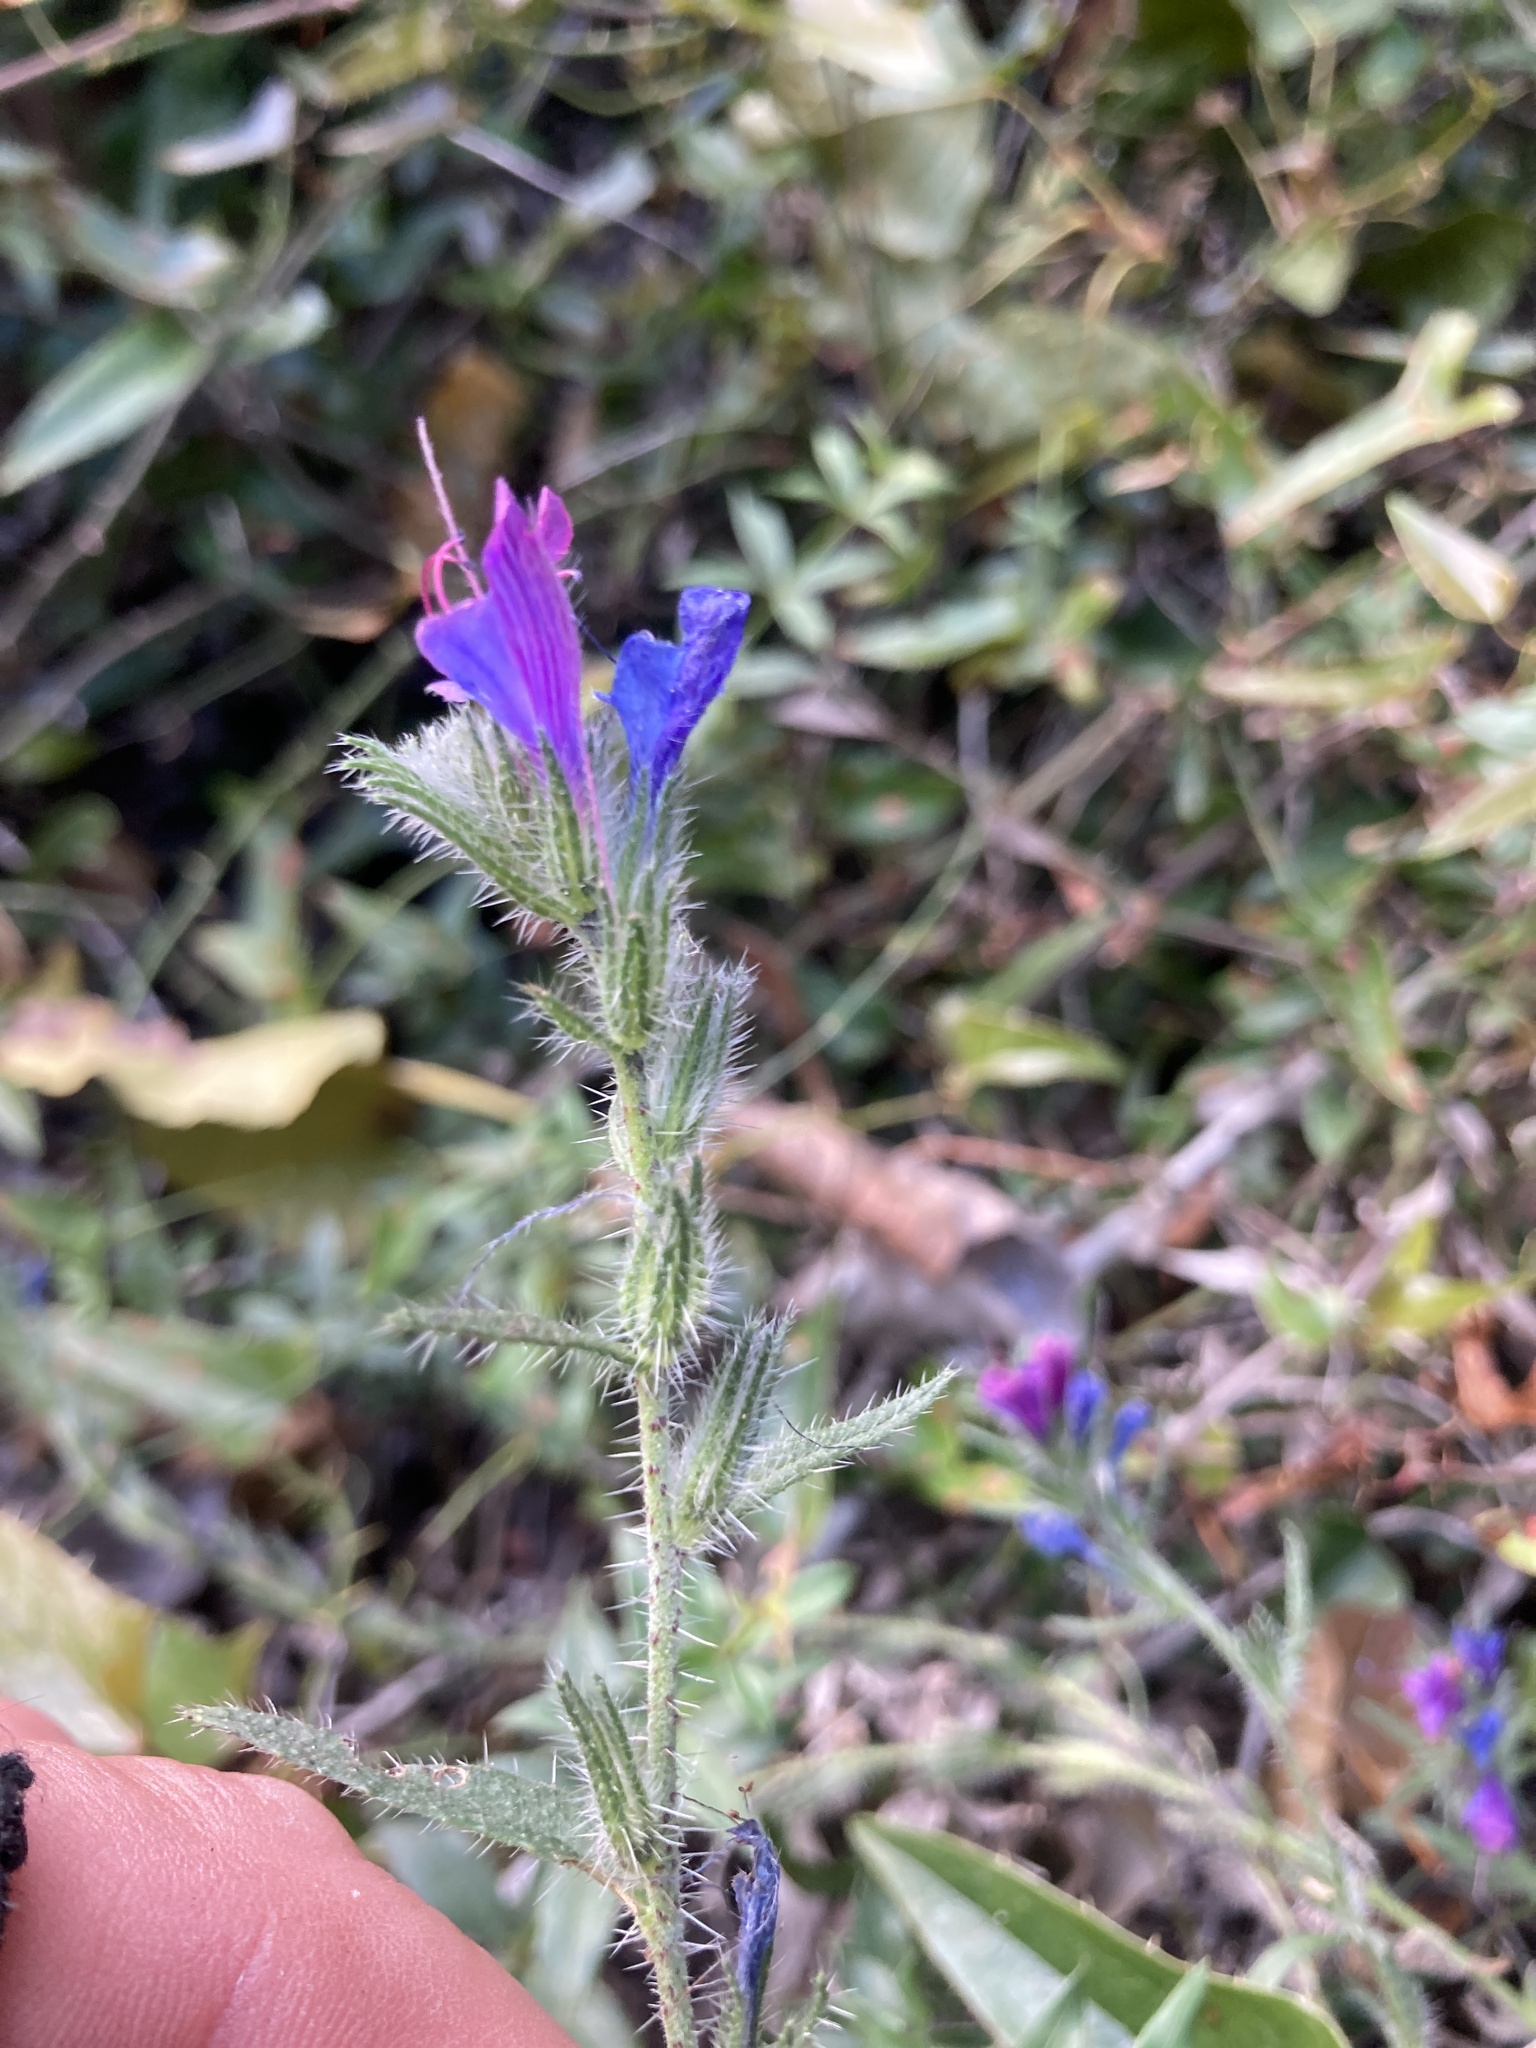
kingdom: Plantae
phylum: Tracheophyta
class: Magnoliopsida
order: Boraginales
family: Boraginaceae
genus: Echium
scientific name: Echium vulgare
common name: Common viper's bugloss
